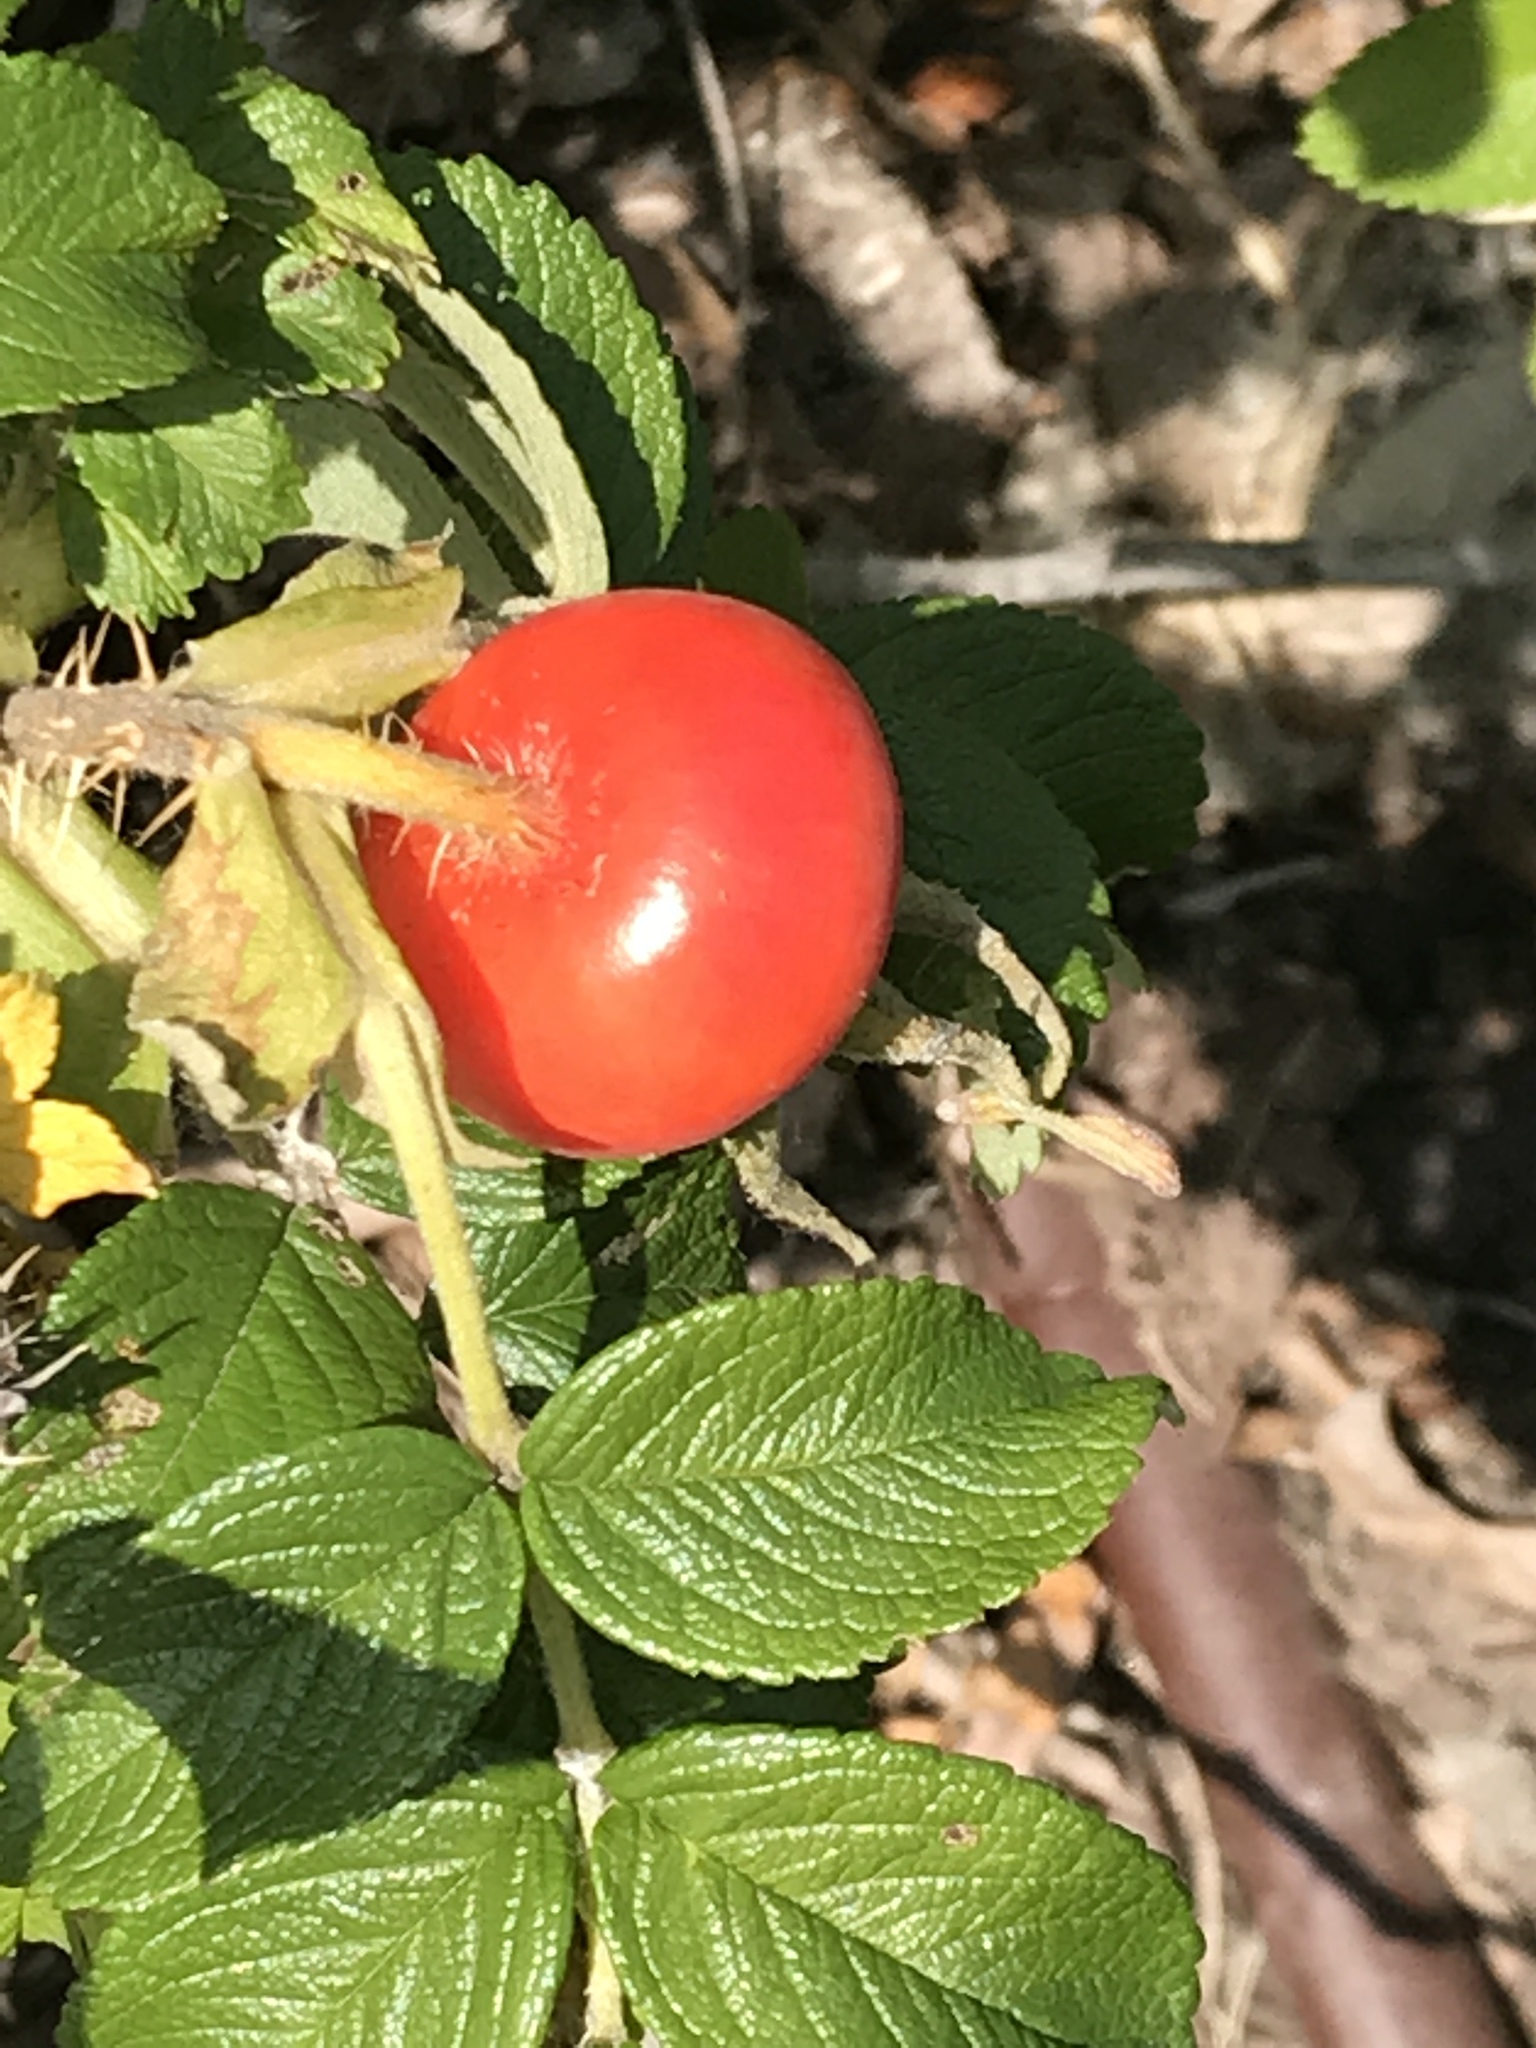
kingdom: Plantae
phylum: Tracheophyta
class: Magnoliopsida
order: Rosales
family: Rosaceae
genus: Rosa
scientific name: Rosa rugosa
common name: Japanese rose
